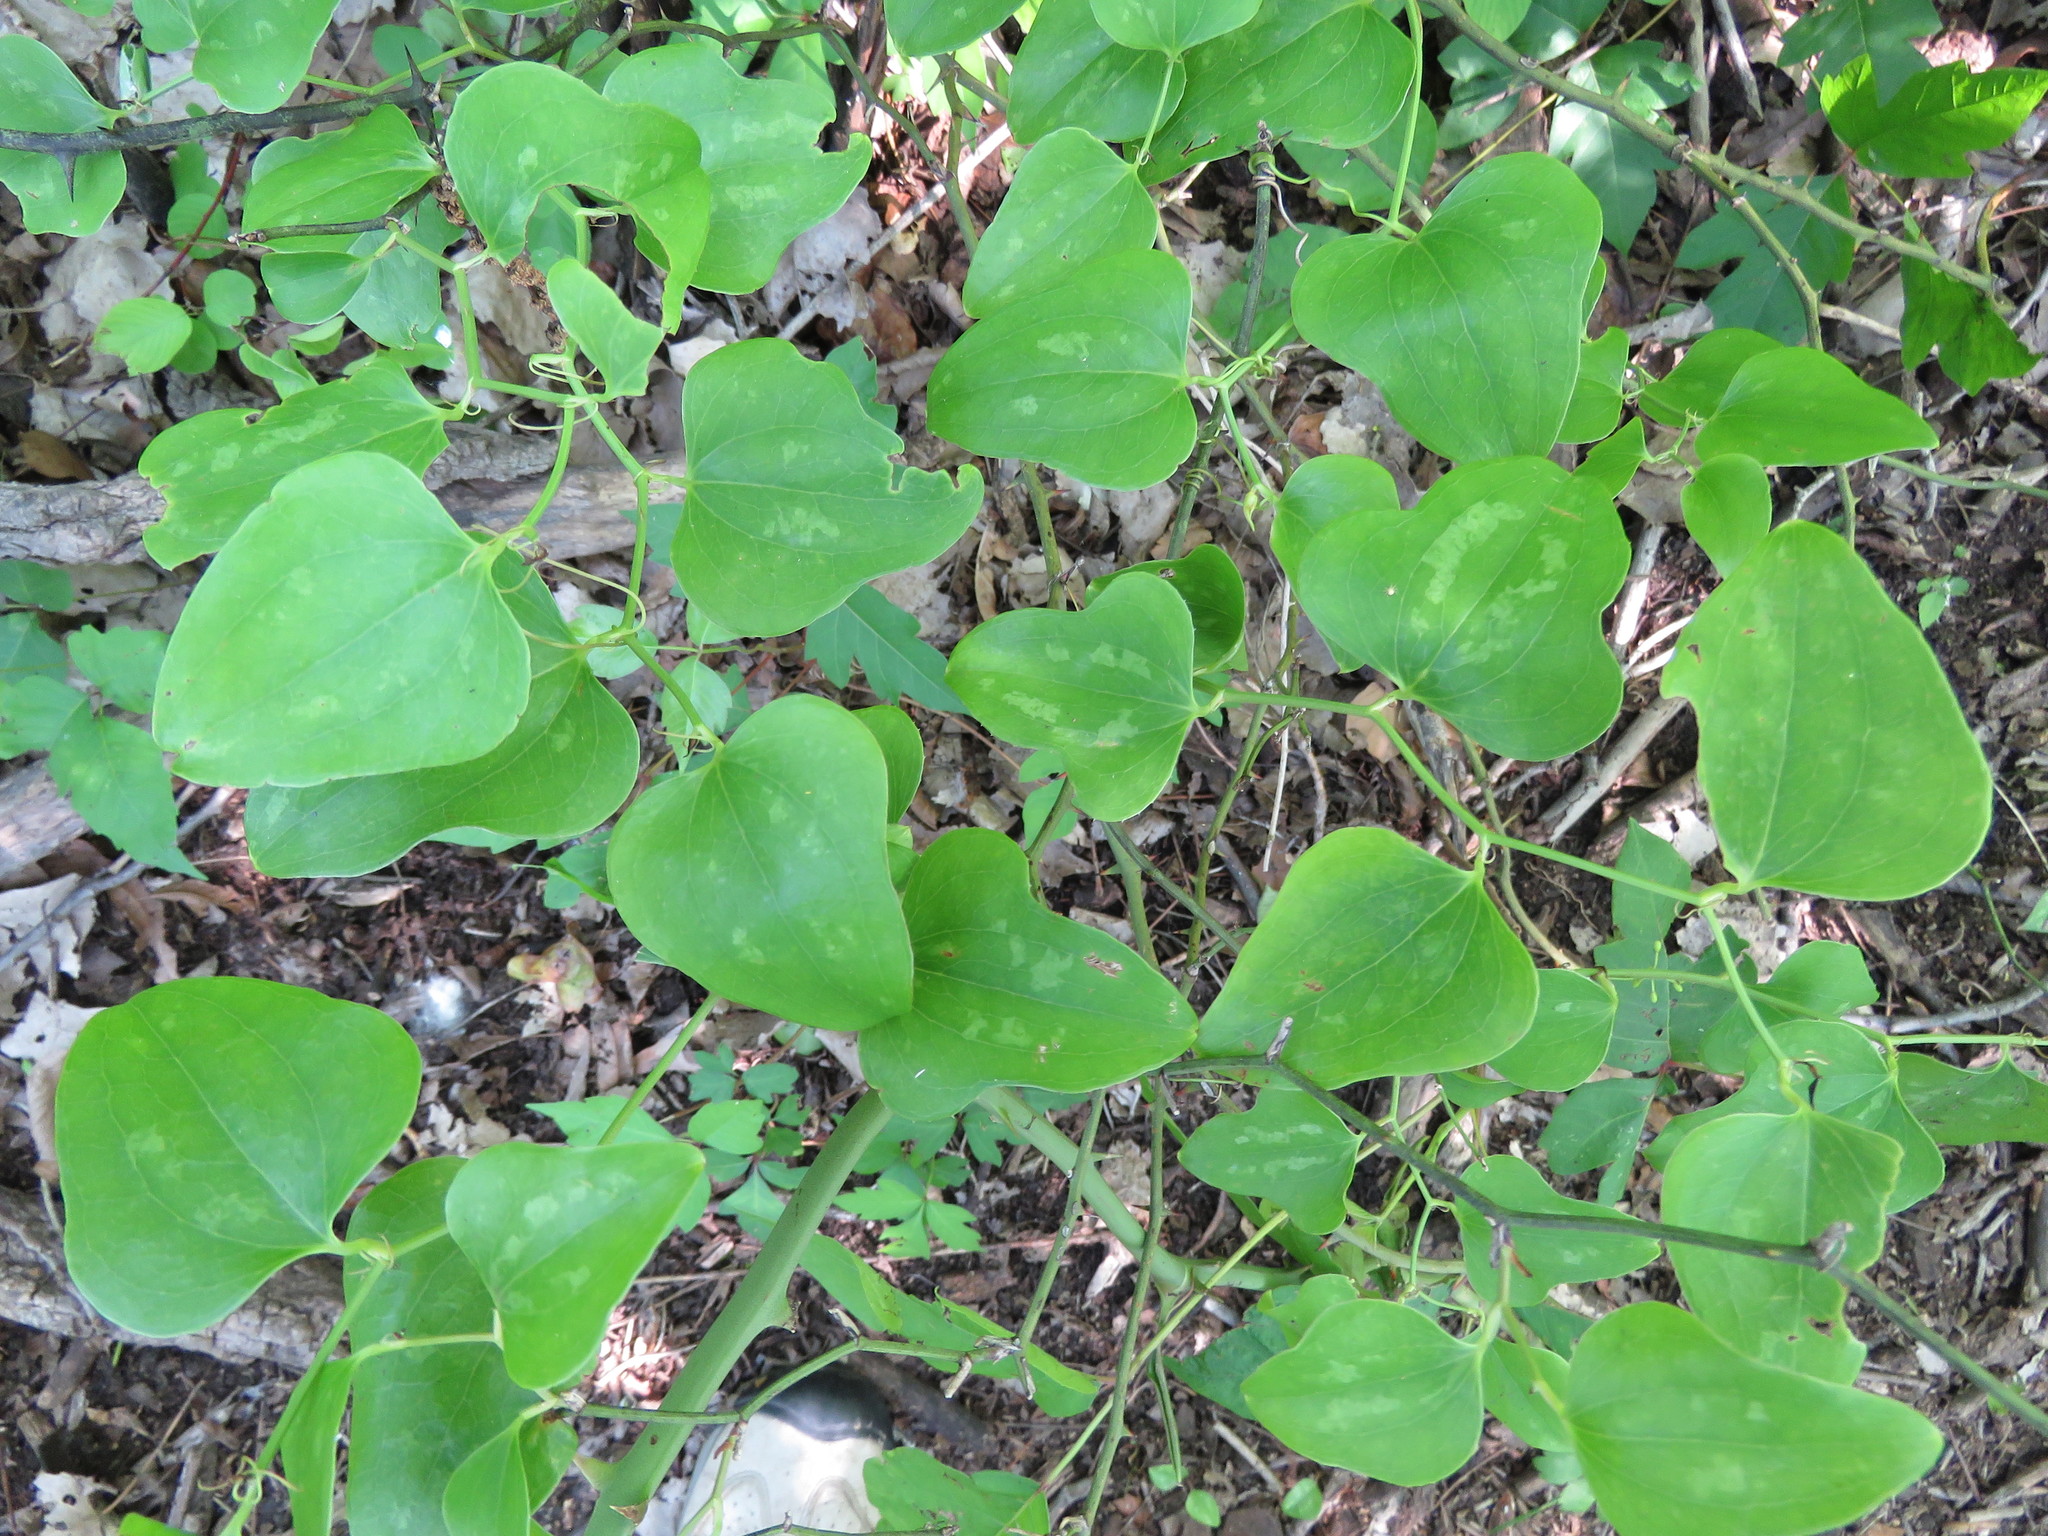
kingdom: Plantae
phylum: Tracheophyta
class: Liliopsida
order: Liliales
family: Smilacaceae
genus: Smilax
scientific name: Smilax bona-nox
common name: Catbrier
